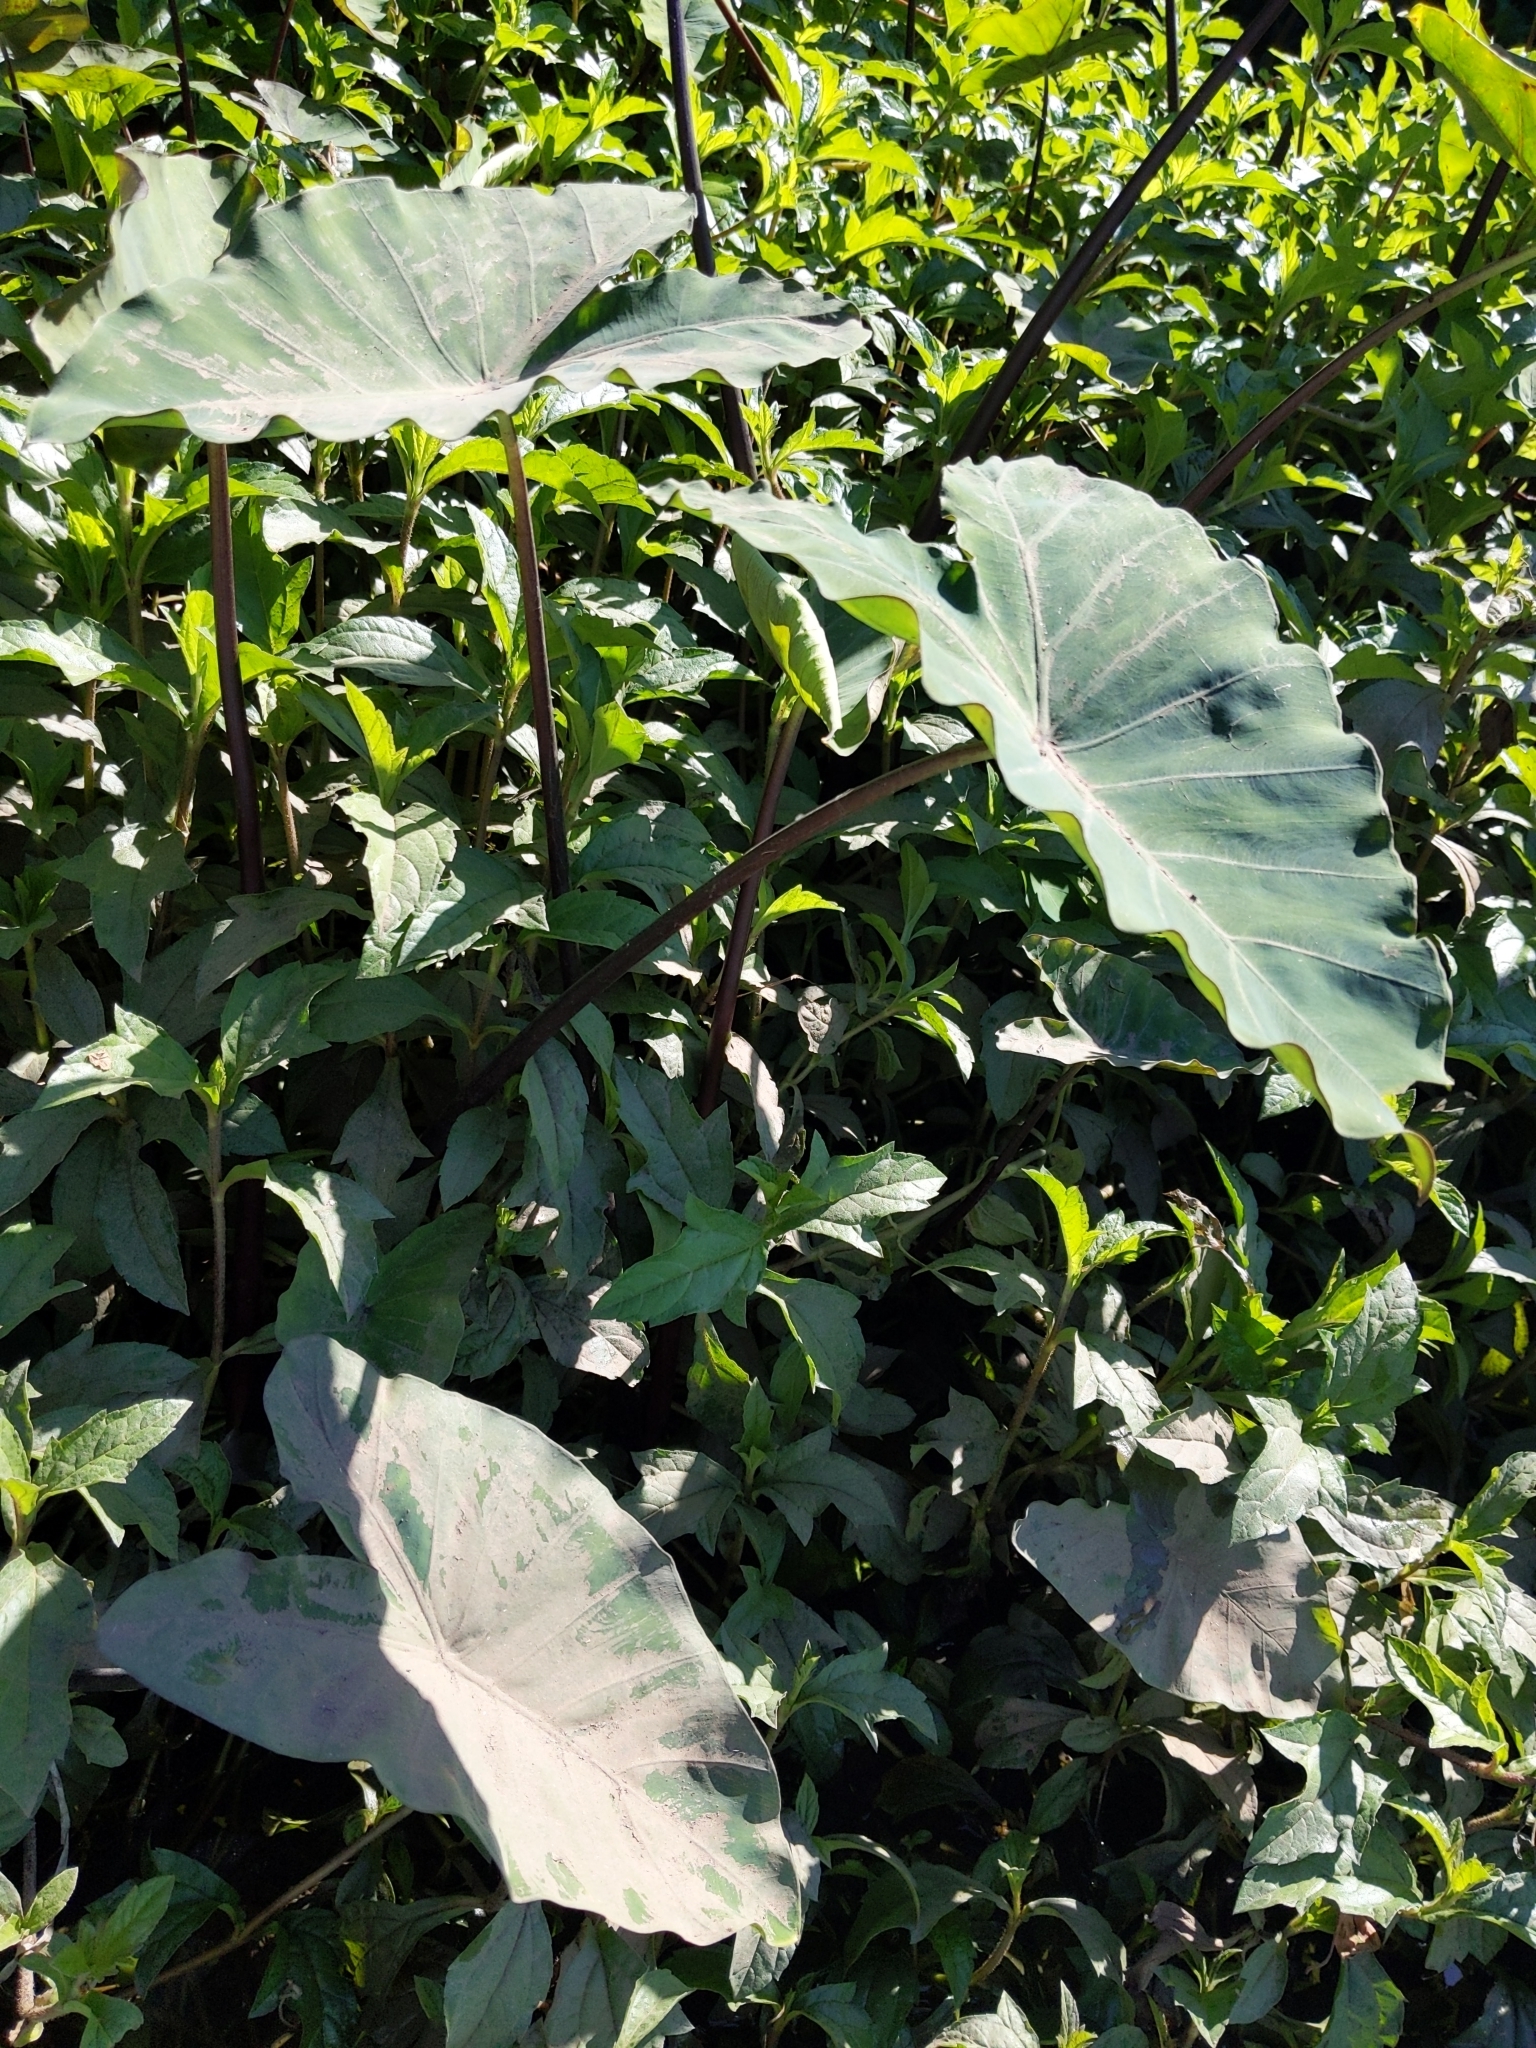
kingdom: Plantae
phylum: Tracheophyta
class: Liliopsida
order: Alismatales
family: Araceae
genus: Colocasia
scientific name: Colocasia esculenta
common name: Taro
